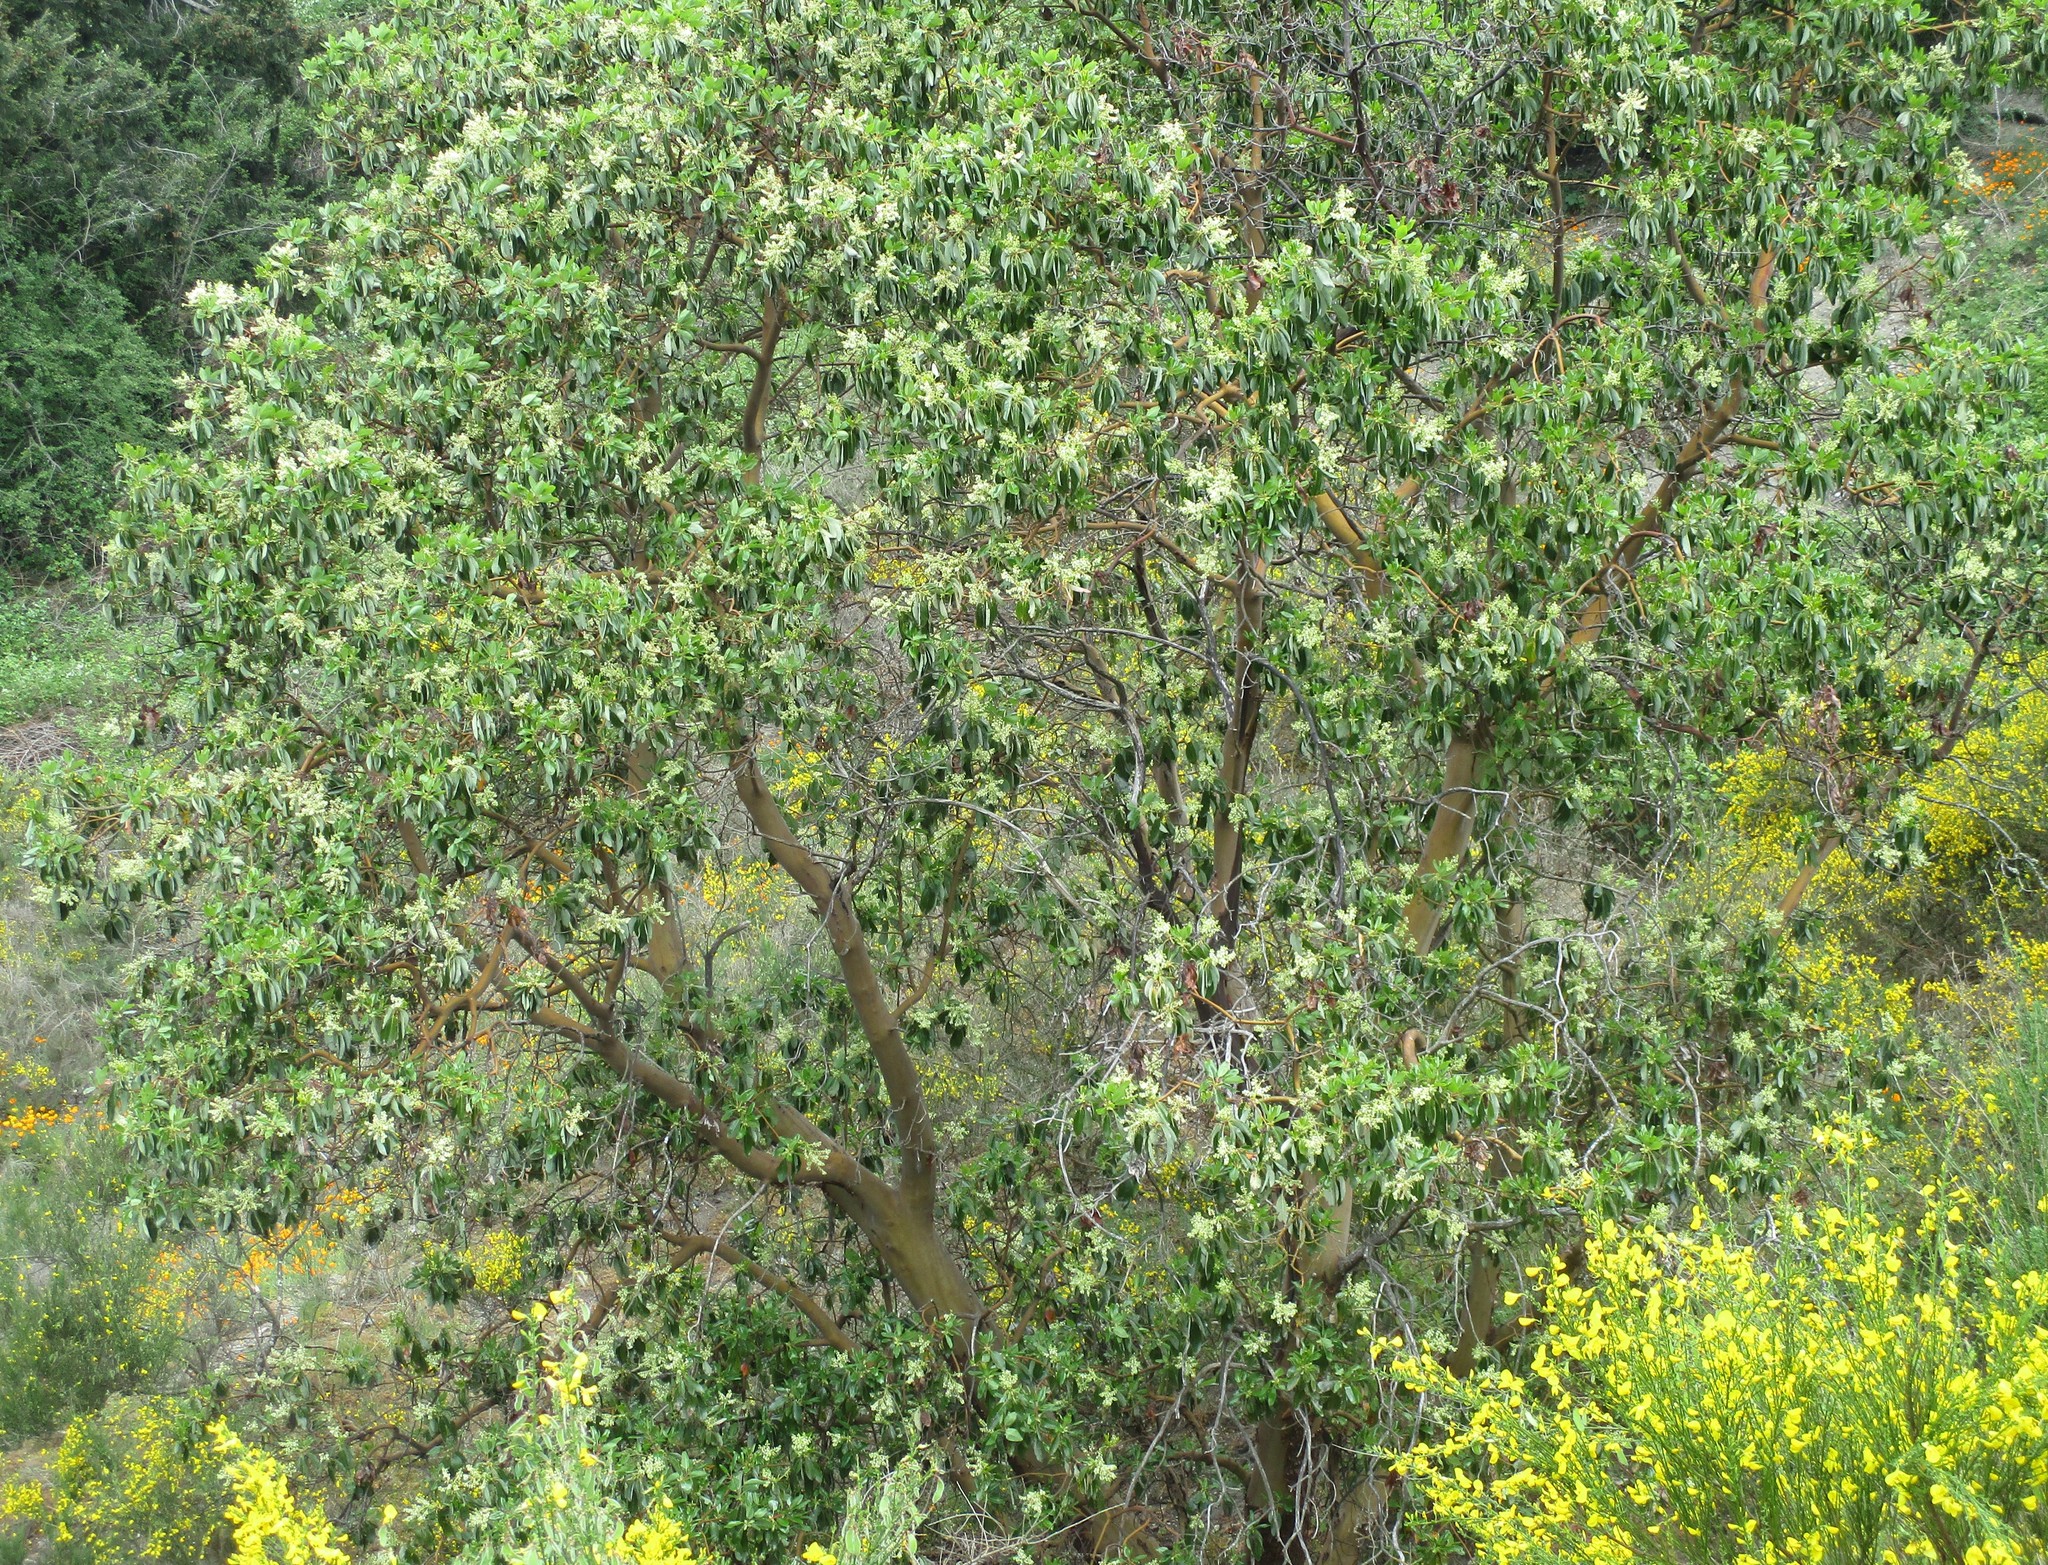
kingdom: Plantae
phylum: Tracheophyta
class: Magnoliopsida
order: Ericales
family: Ericaceae
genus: Arbutus
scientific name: Arbutus menziesii
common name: Pacific madrone
